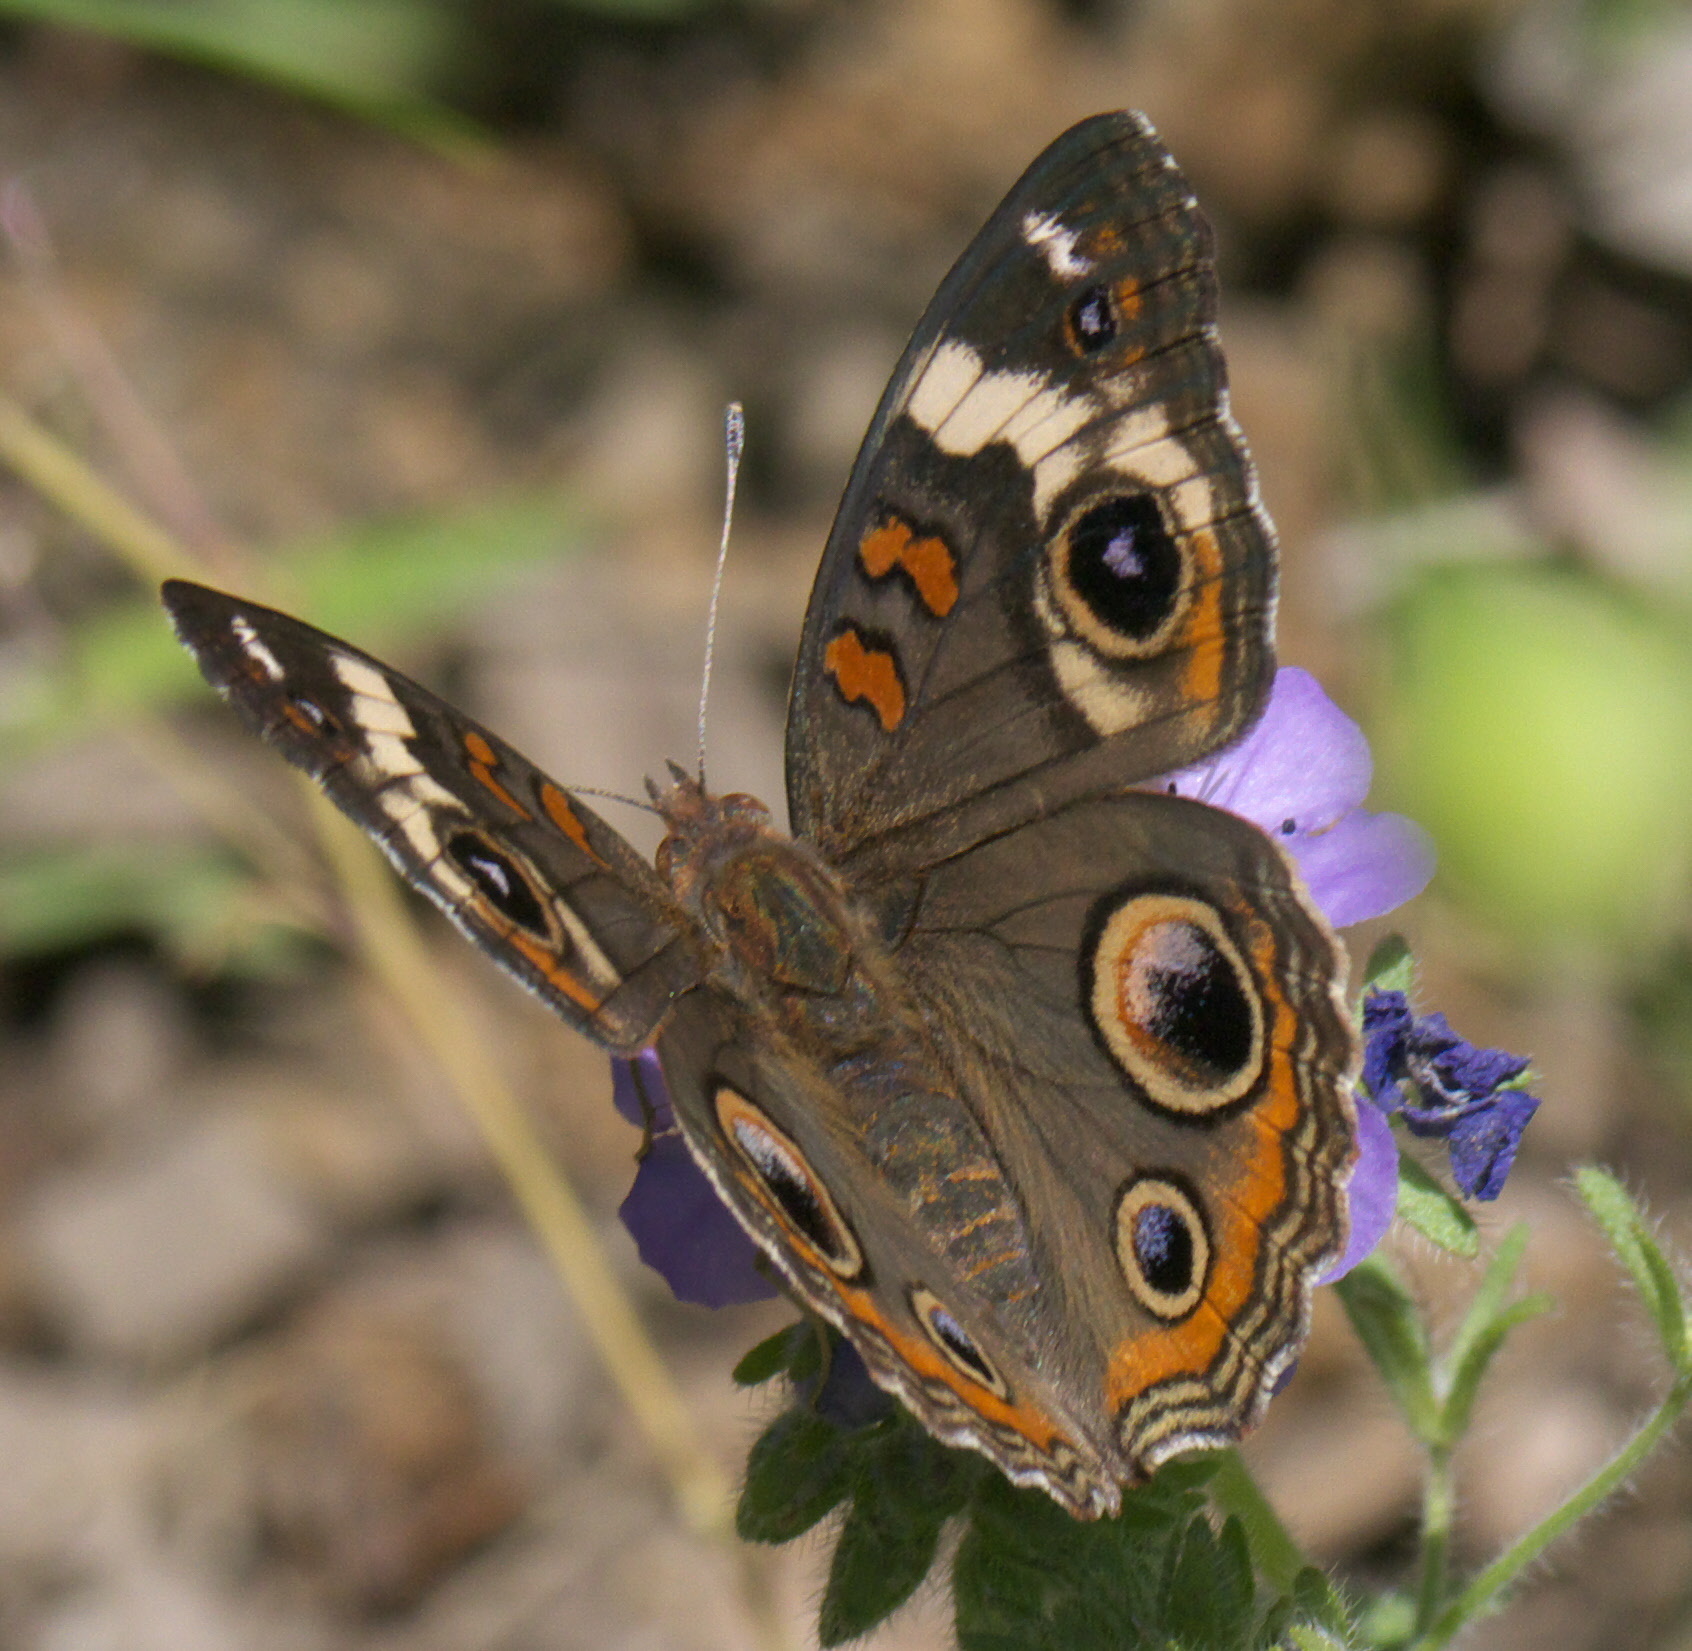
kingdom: Animalia
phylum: Arthropoda
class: Insecta
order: Lepidoptera
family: Nymphalidae
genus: Junonia
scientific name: Junonia coenia
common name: Common buckeye
